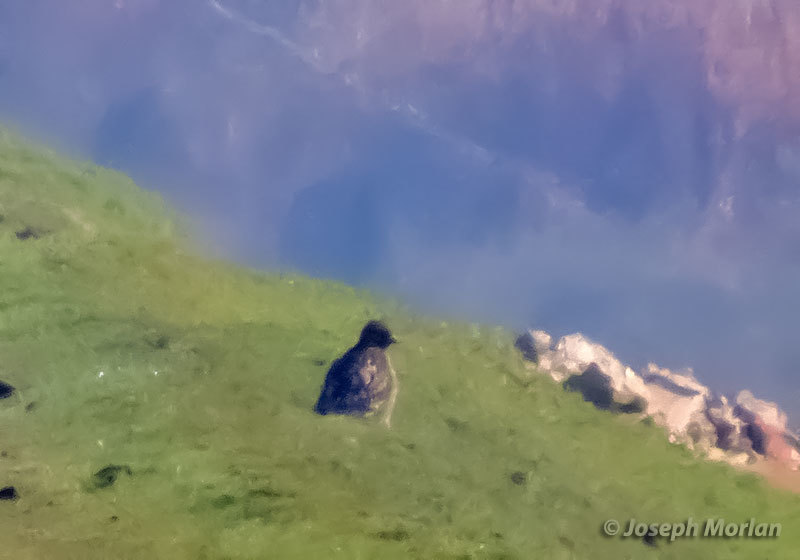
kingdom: Animalia
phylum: Chordata
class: Aves
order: Accipitriformes
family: Accipitridae
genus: Buteo
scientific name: Buteo jamaicensis
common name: Red-tailed hawk
